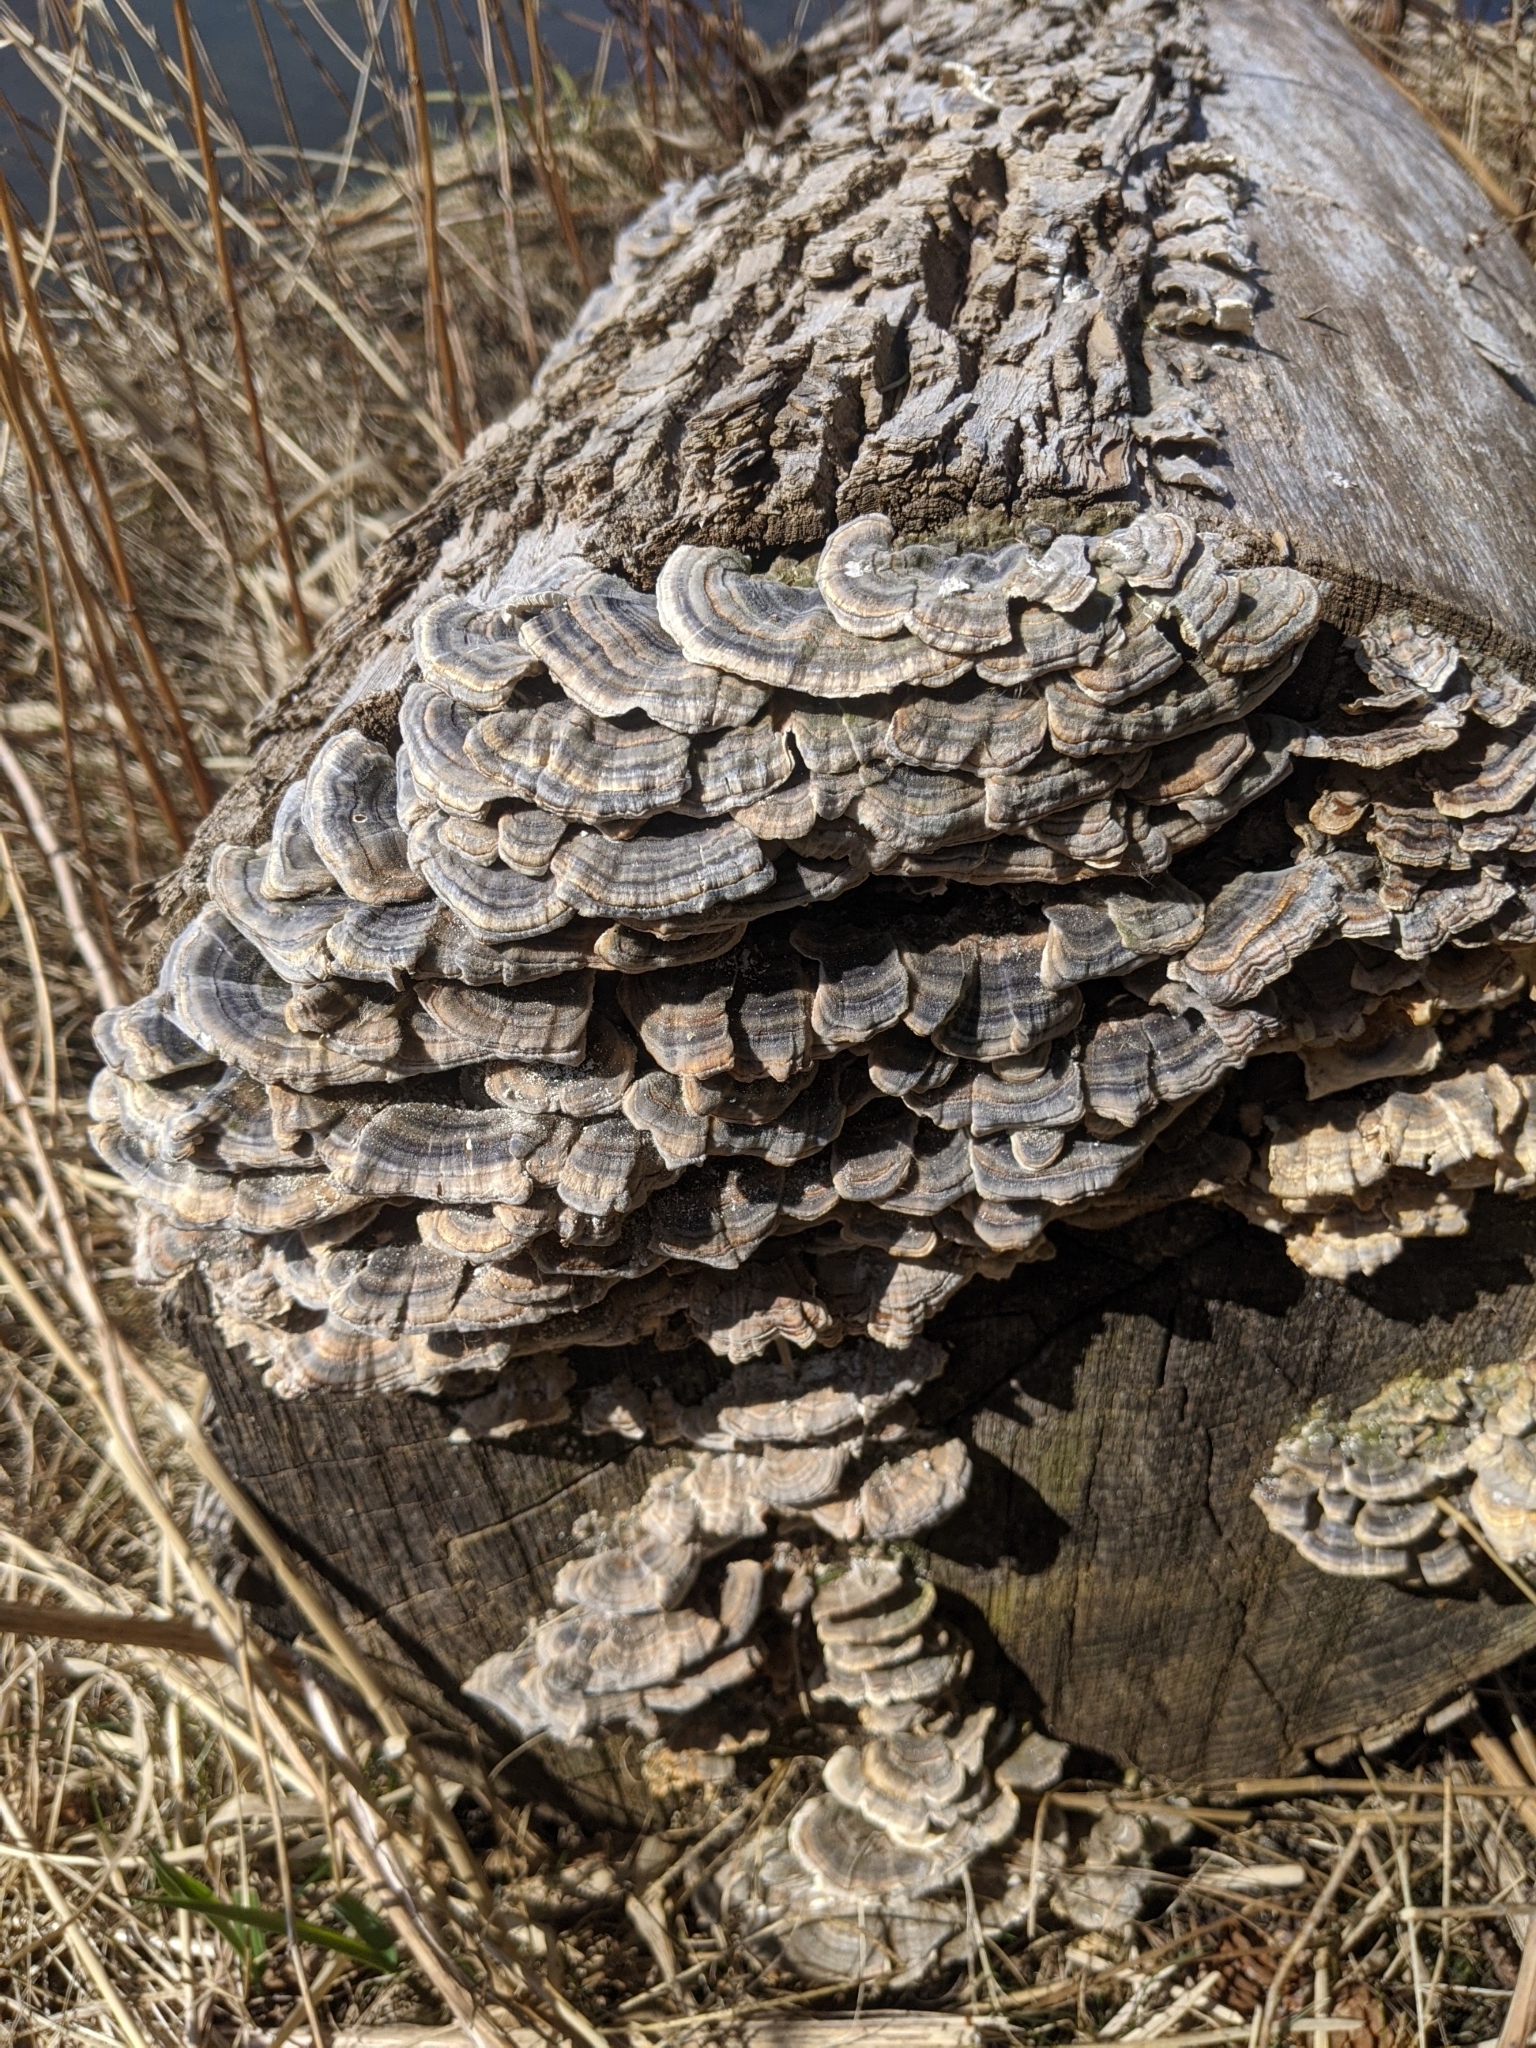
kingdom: Fungi
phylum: Basidiomycota
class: Agaricomycetes
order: Polyporales
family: Polyporaceae
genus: Trametes
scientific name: Trametes versicolor
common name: Turkeytail
